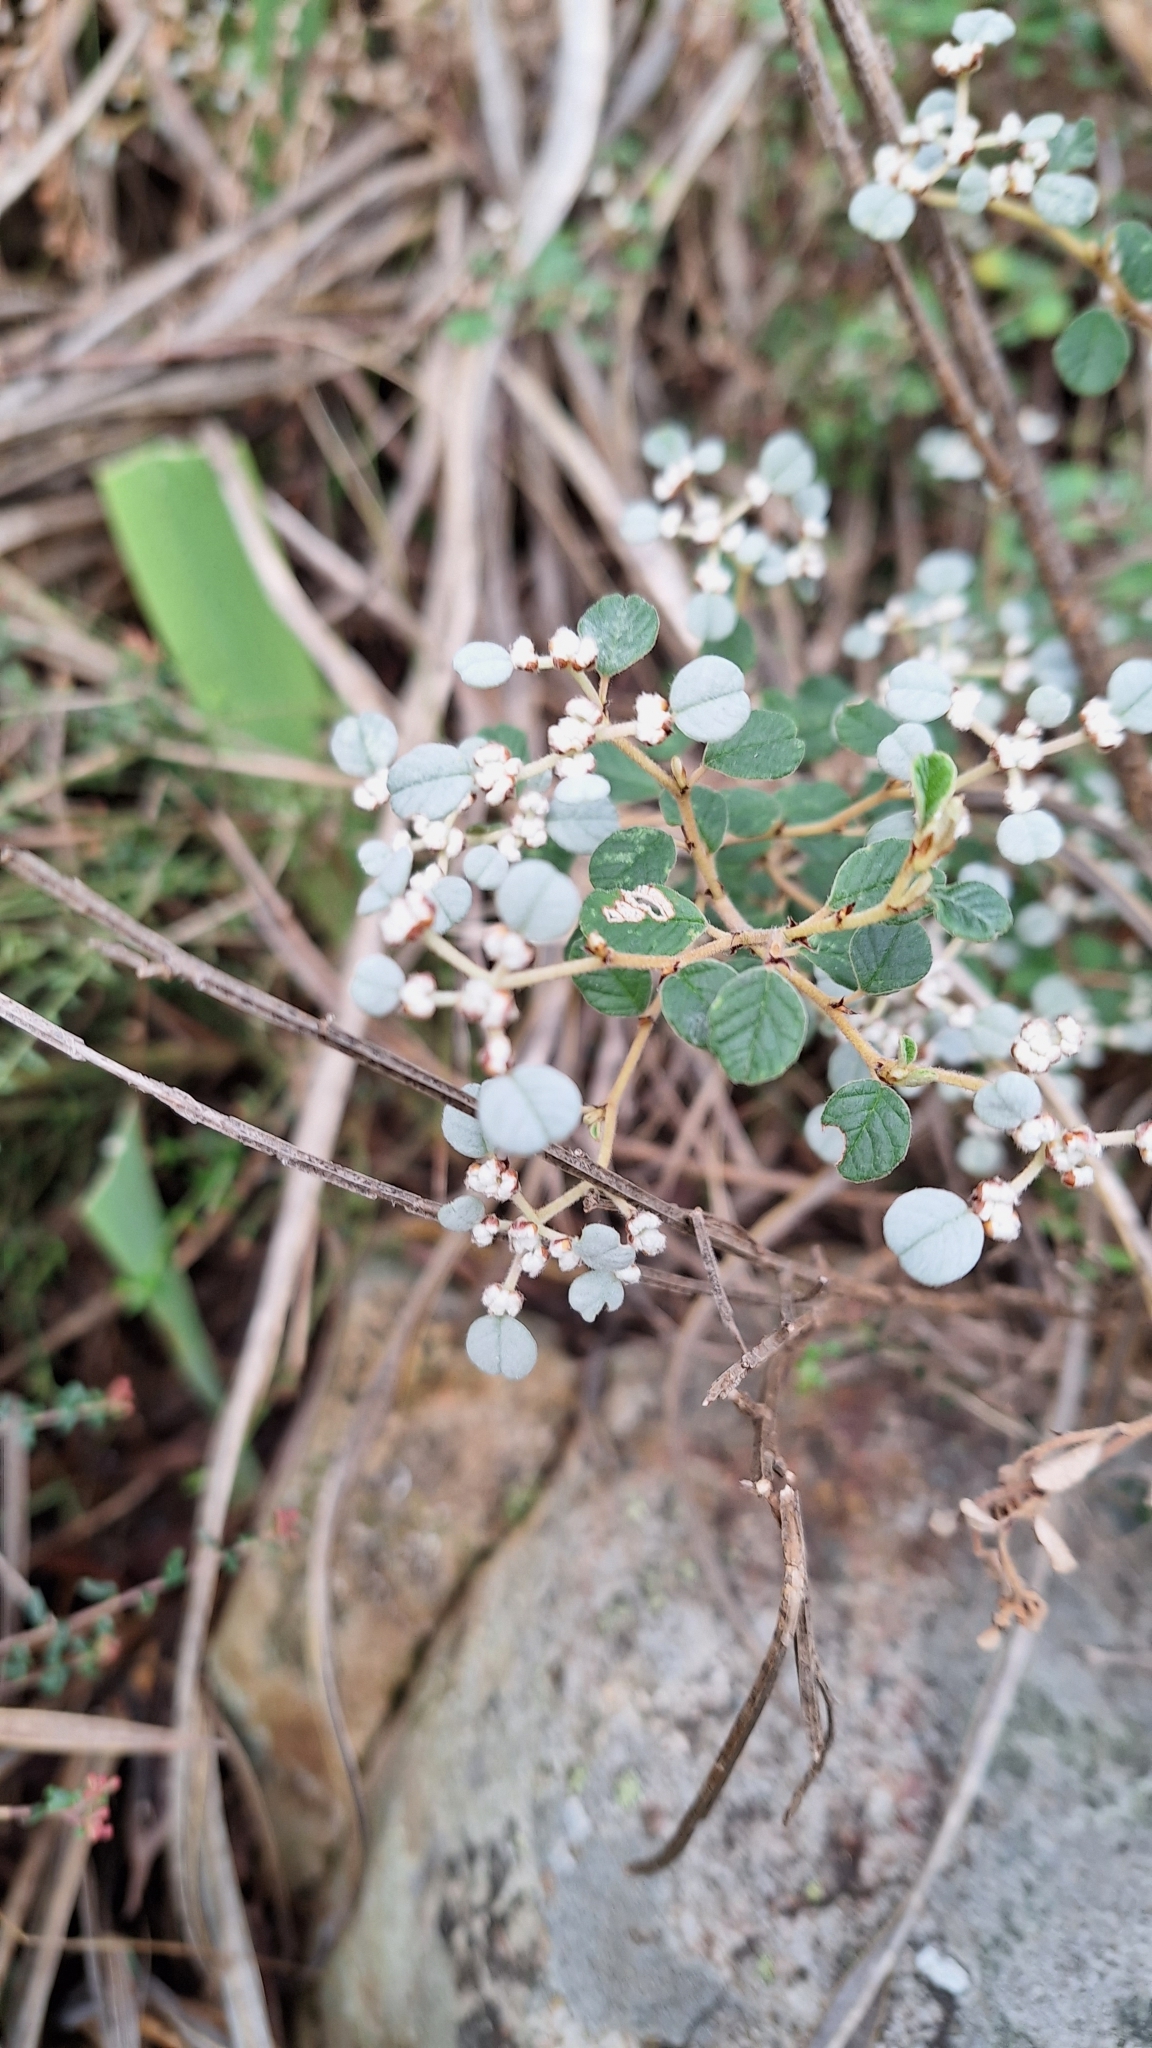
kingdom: Plantae
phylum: Tracheophyta
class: Magnoliopsida
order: Rosales
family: Rhamnaceae
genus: Spyridium
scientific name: Spyridium parvifolium
